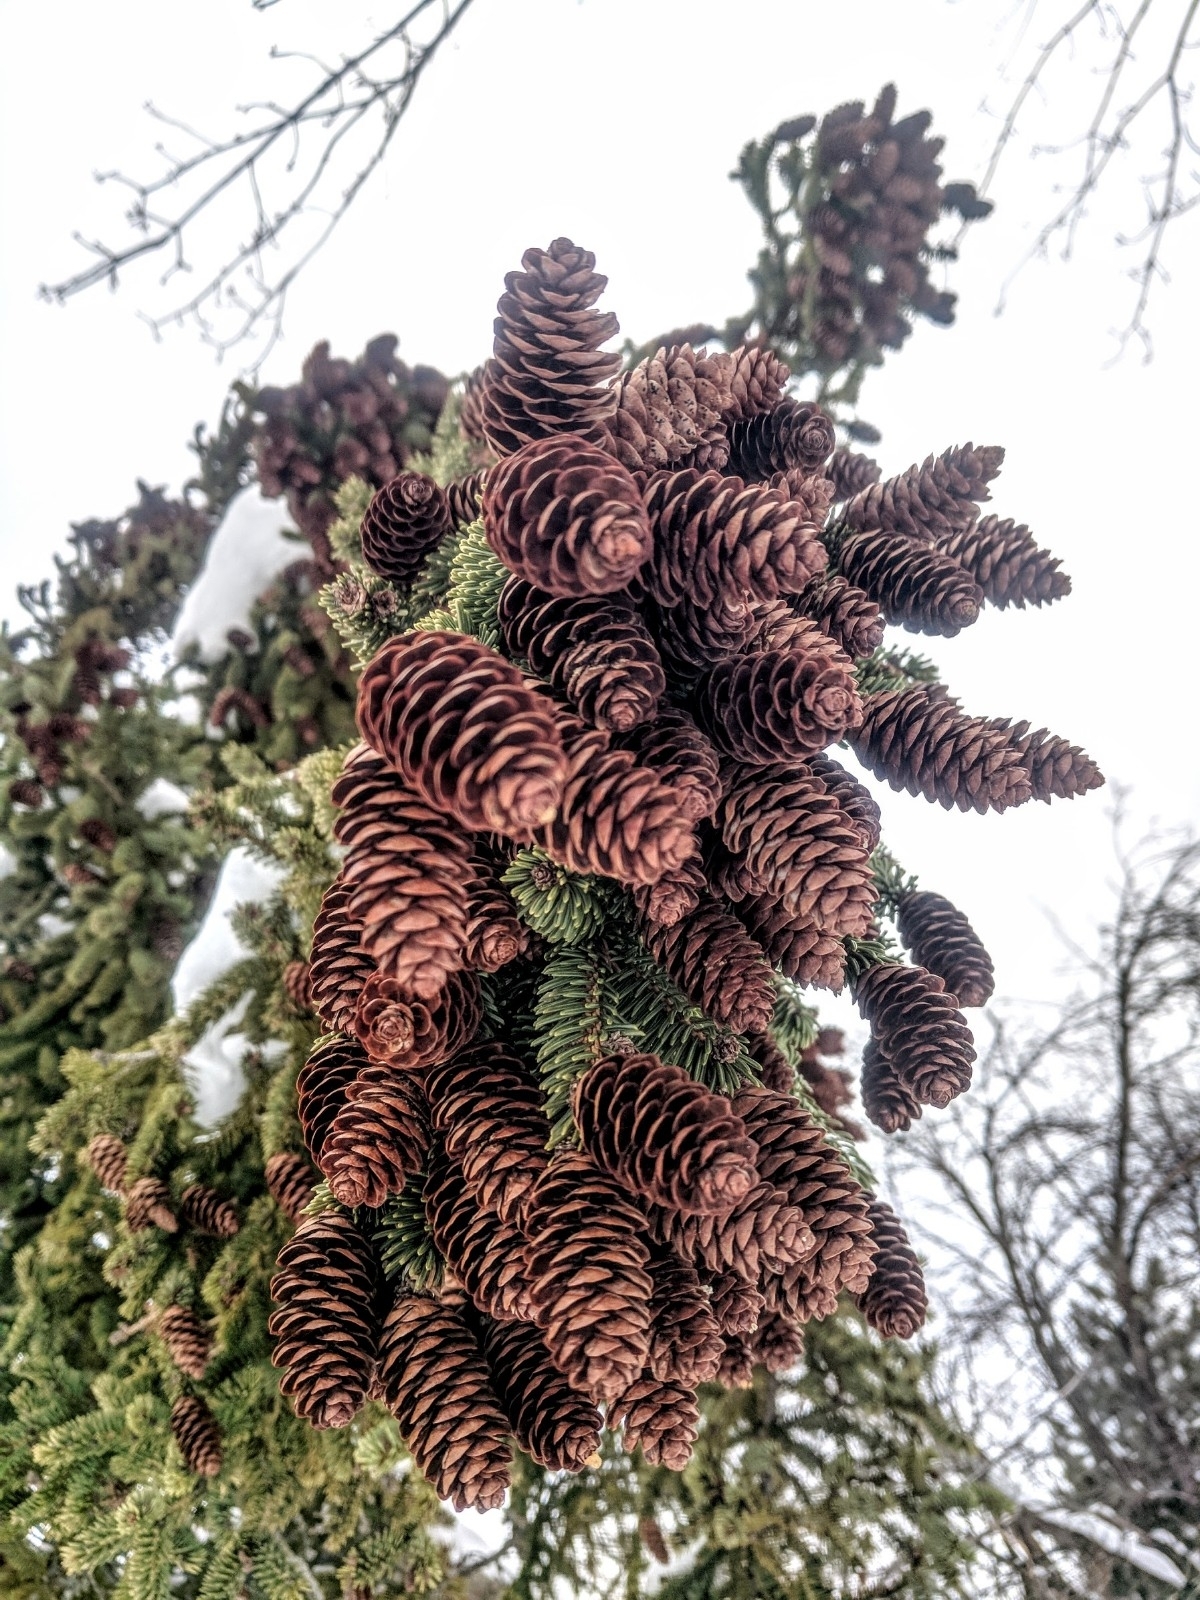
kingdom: Plantae
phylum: Tracheophyta
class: Pinopsida
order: Pinales
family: Pinaceae
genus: Picea
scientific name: Picea glauca
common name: White spruce
